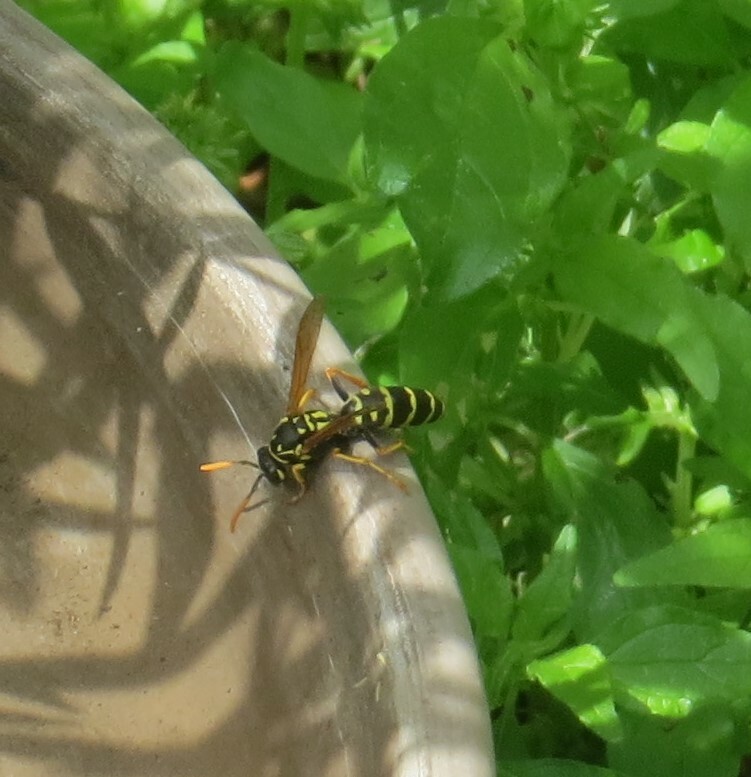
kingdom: Animalia
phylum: Arthropoda
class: Insecta
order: Hymenoptera
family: Eumenidae
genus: Polistes
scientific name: Polistes dominula
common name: Paper wasp
